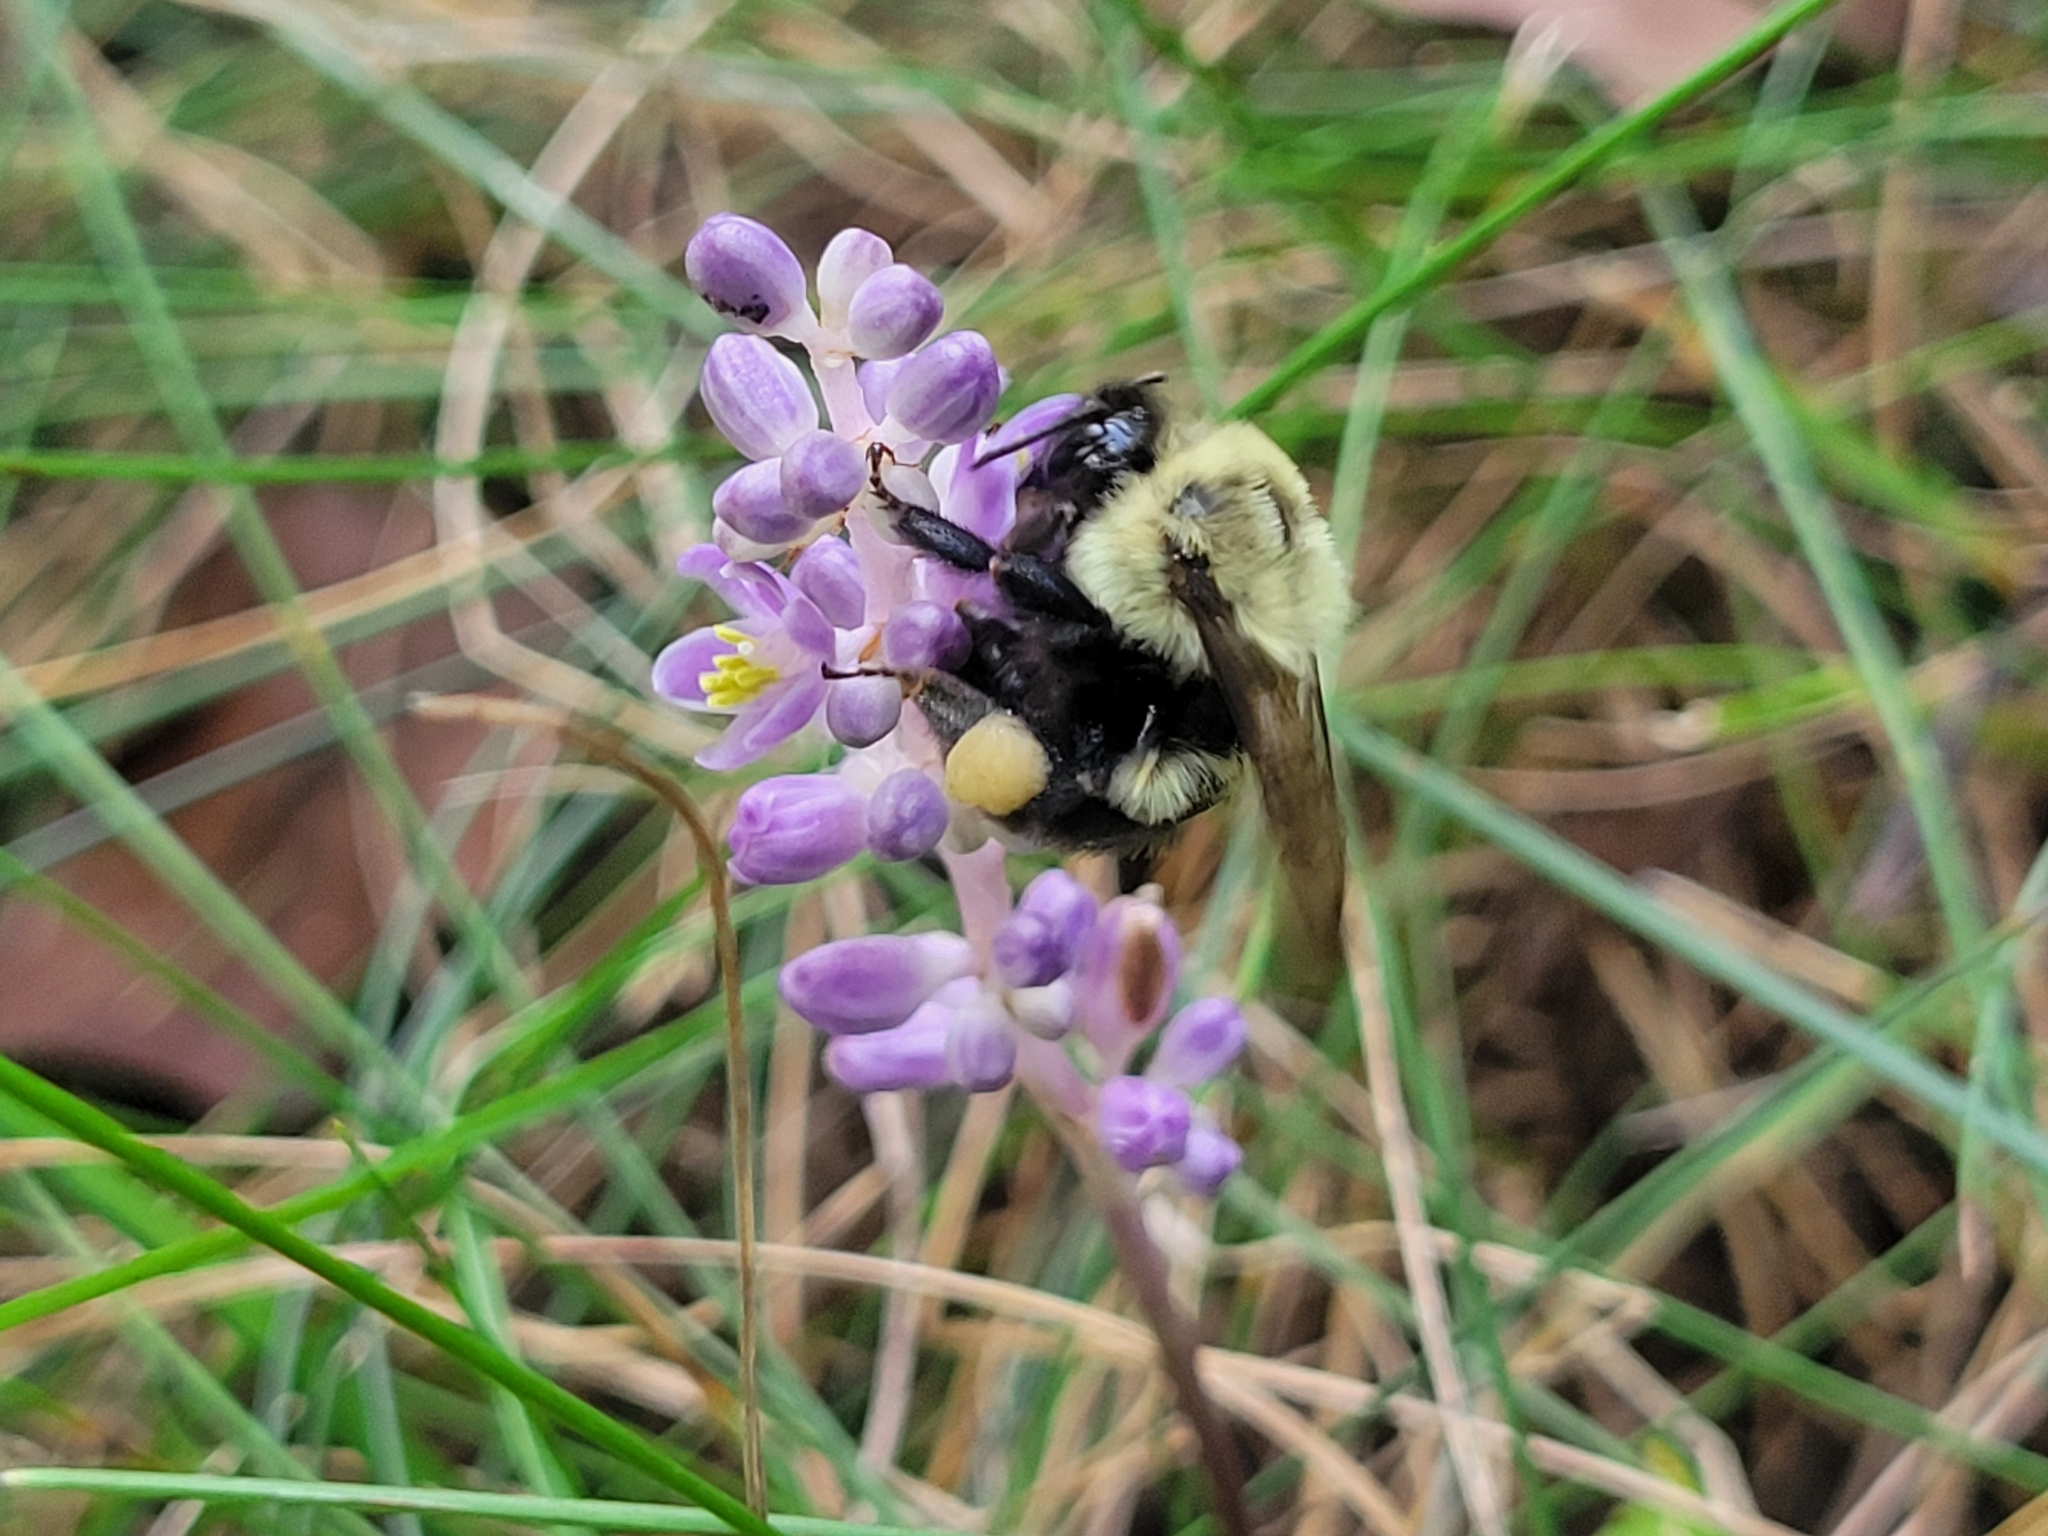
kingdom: Animalia
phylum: Arthropoda
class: Insecta
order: Hymenoptera
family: Apidae
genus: Bombus
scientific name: Bombus impatiens
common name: Common eastern bumble bee
